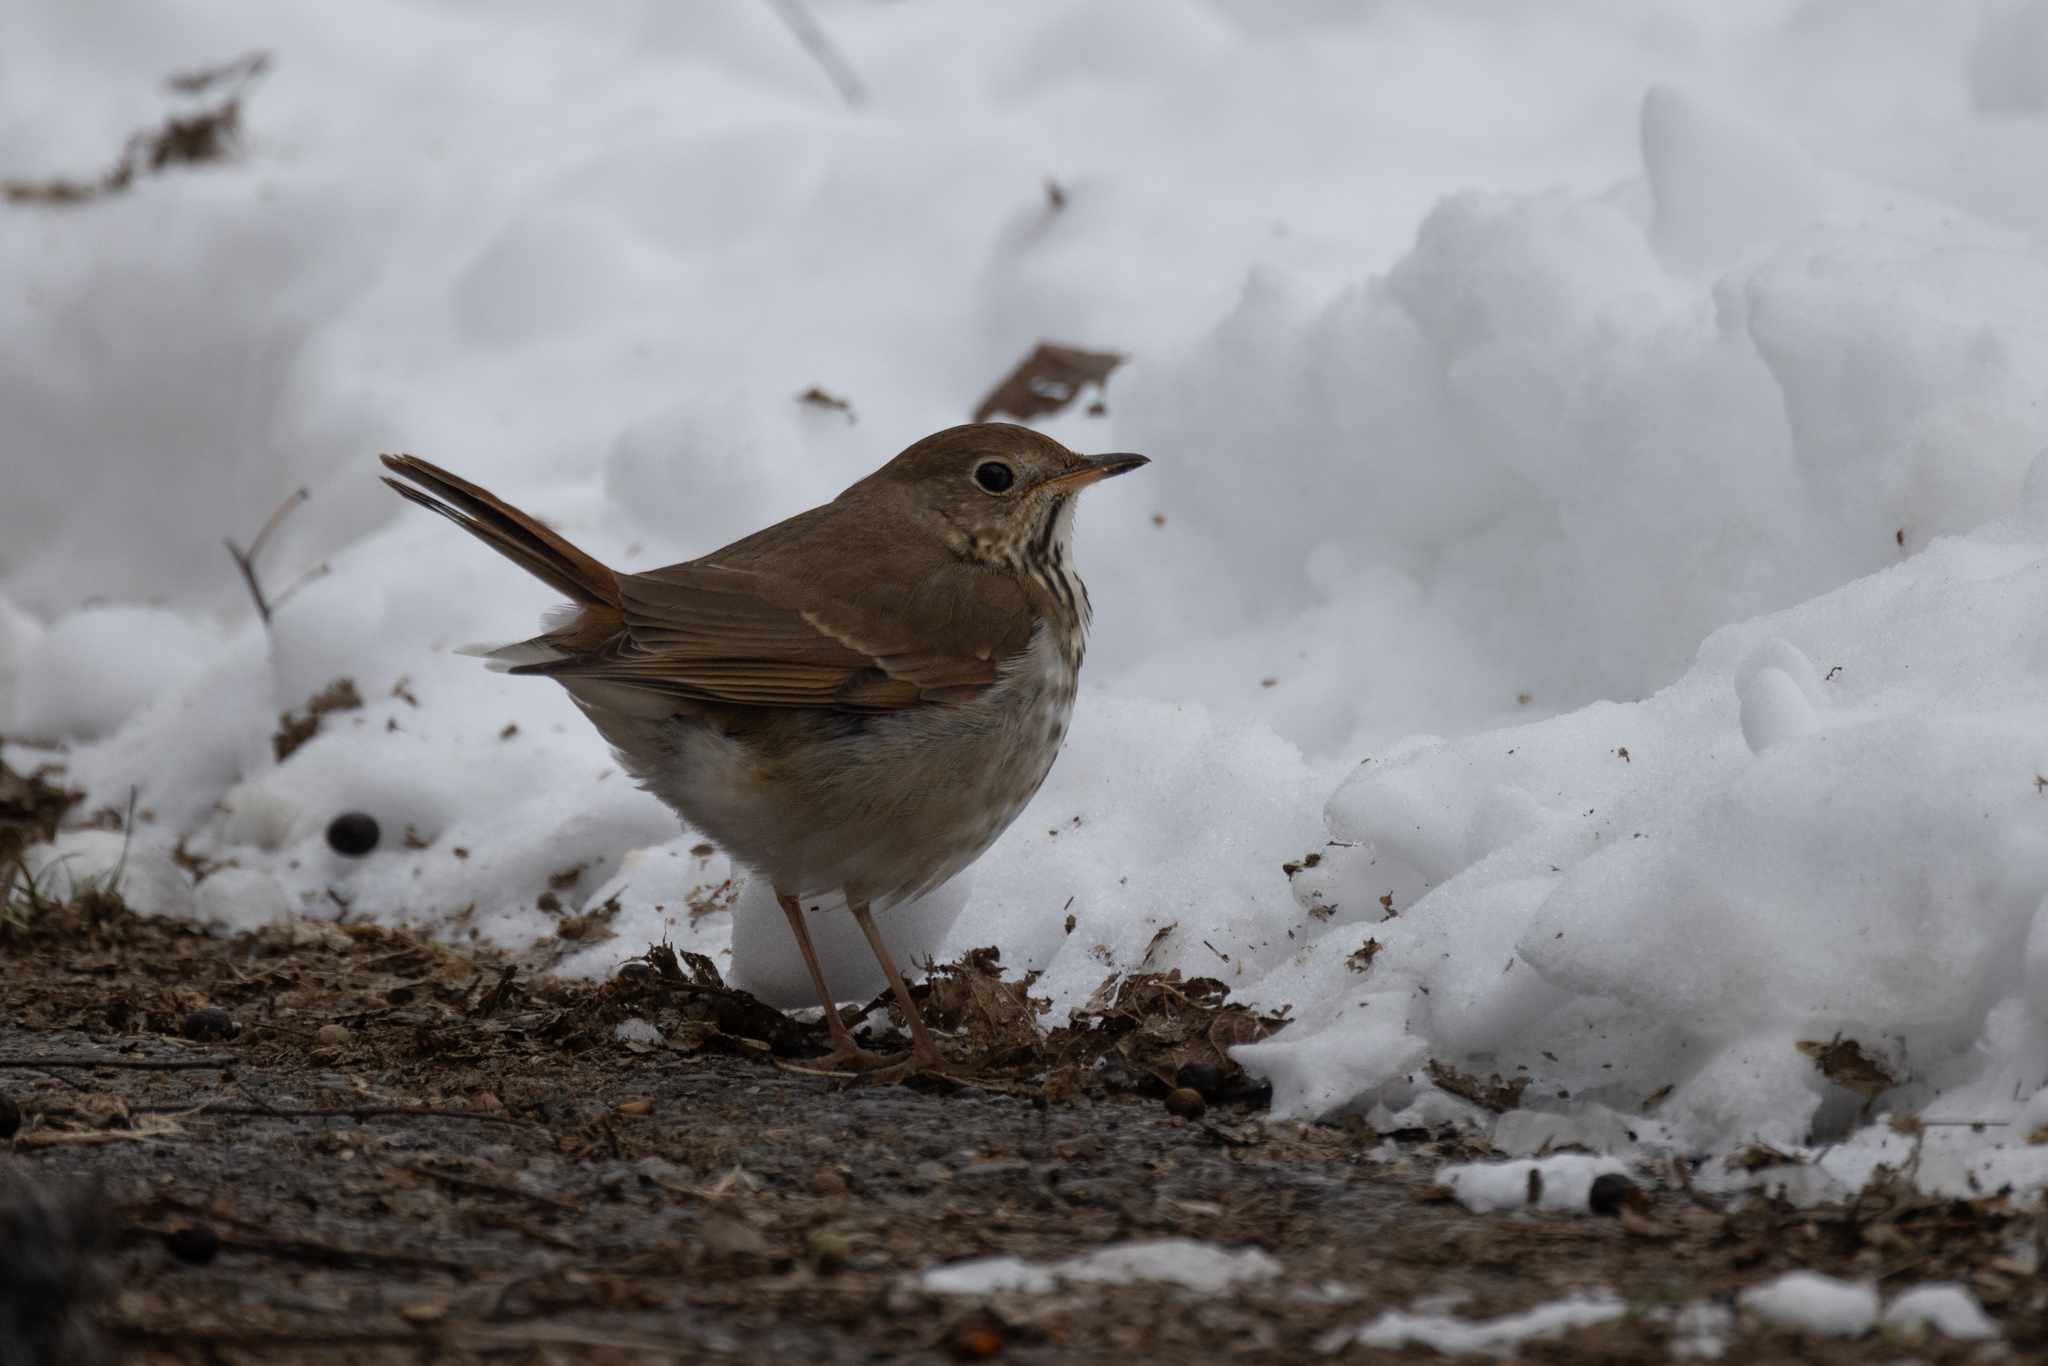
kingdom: Animalia
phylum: Chordata
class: Aves
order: Passeriformes
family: Turdidae
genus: Catharus
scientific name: Catharus guttatus
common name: Hermit thrush
